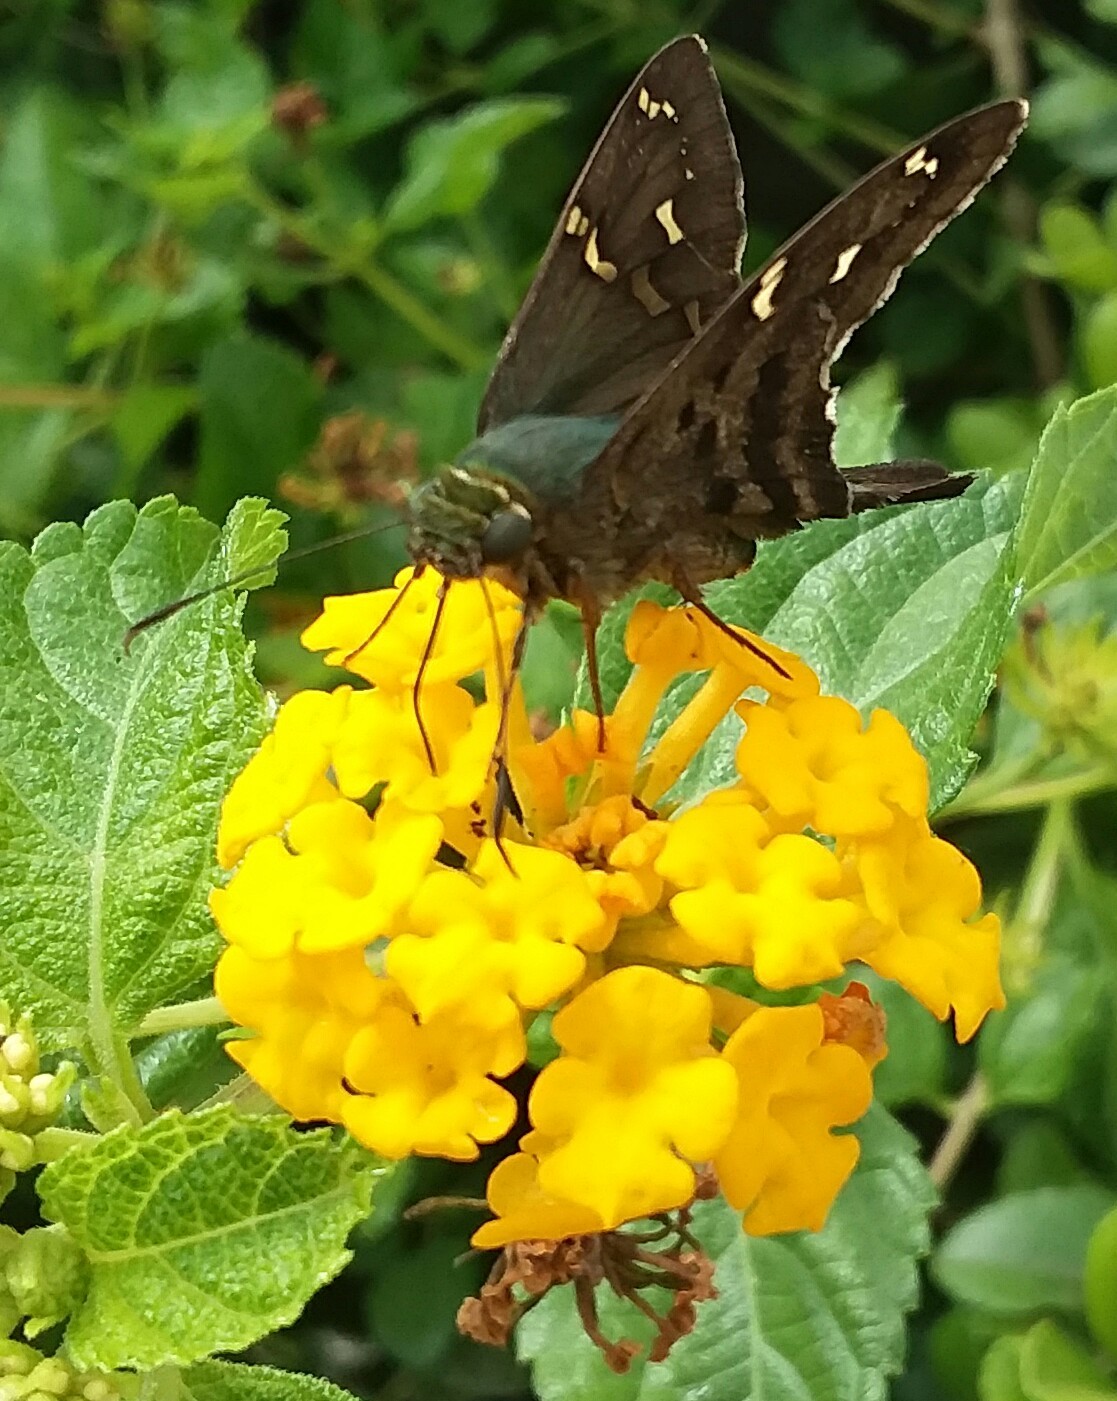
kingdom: Animalia
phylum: Arthropoda
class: Insecta
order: Lepidoptera
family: Hesperiidae
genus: Urbanus
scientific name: Urbanus proteus
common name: Long-tailed skipper
